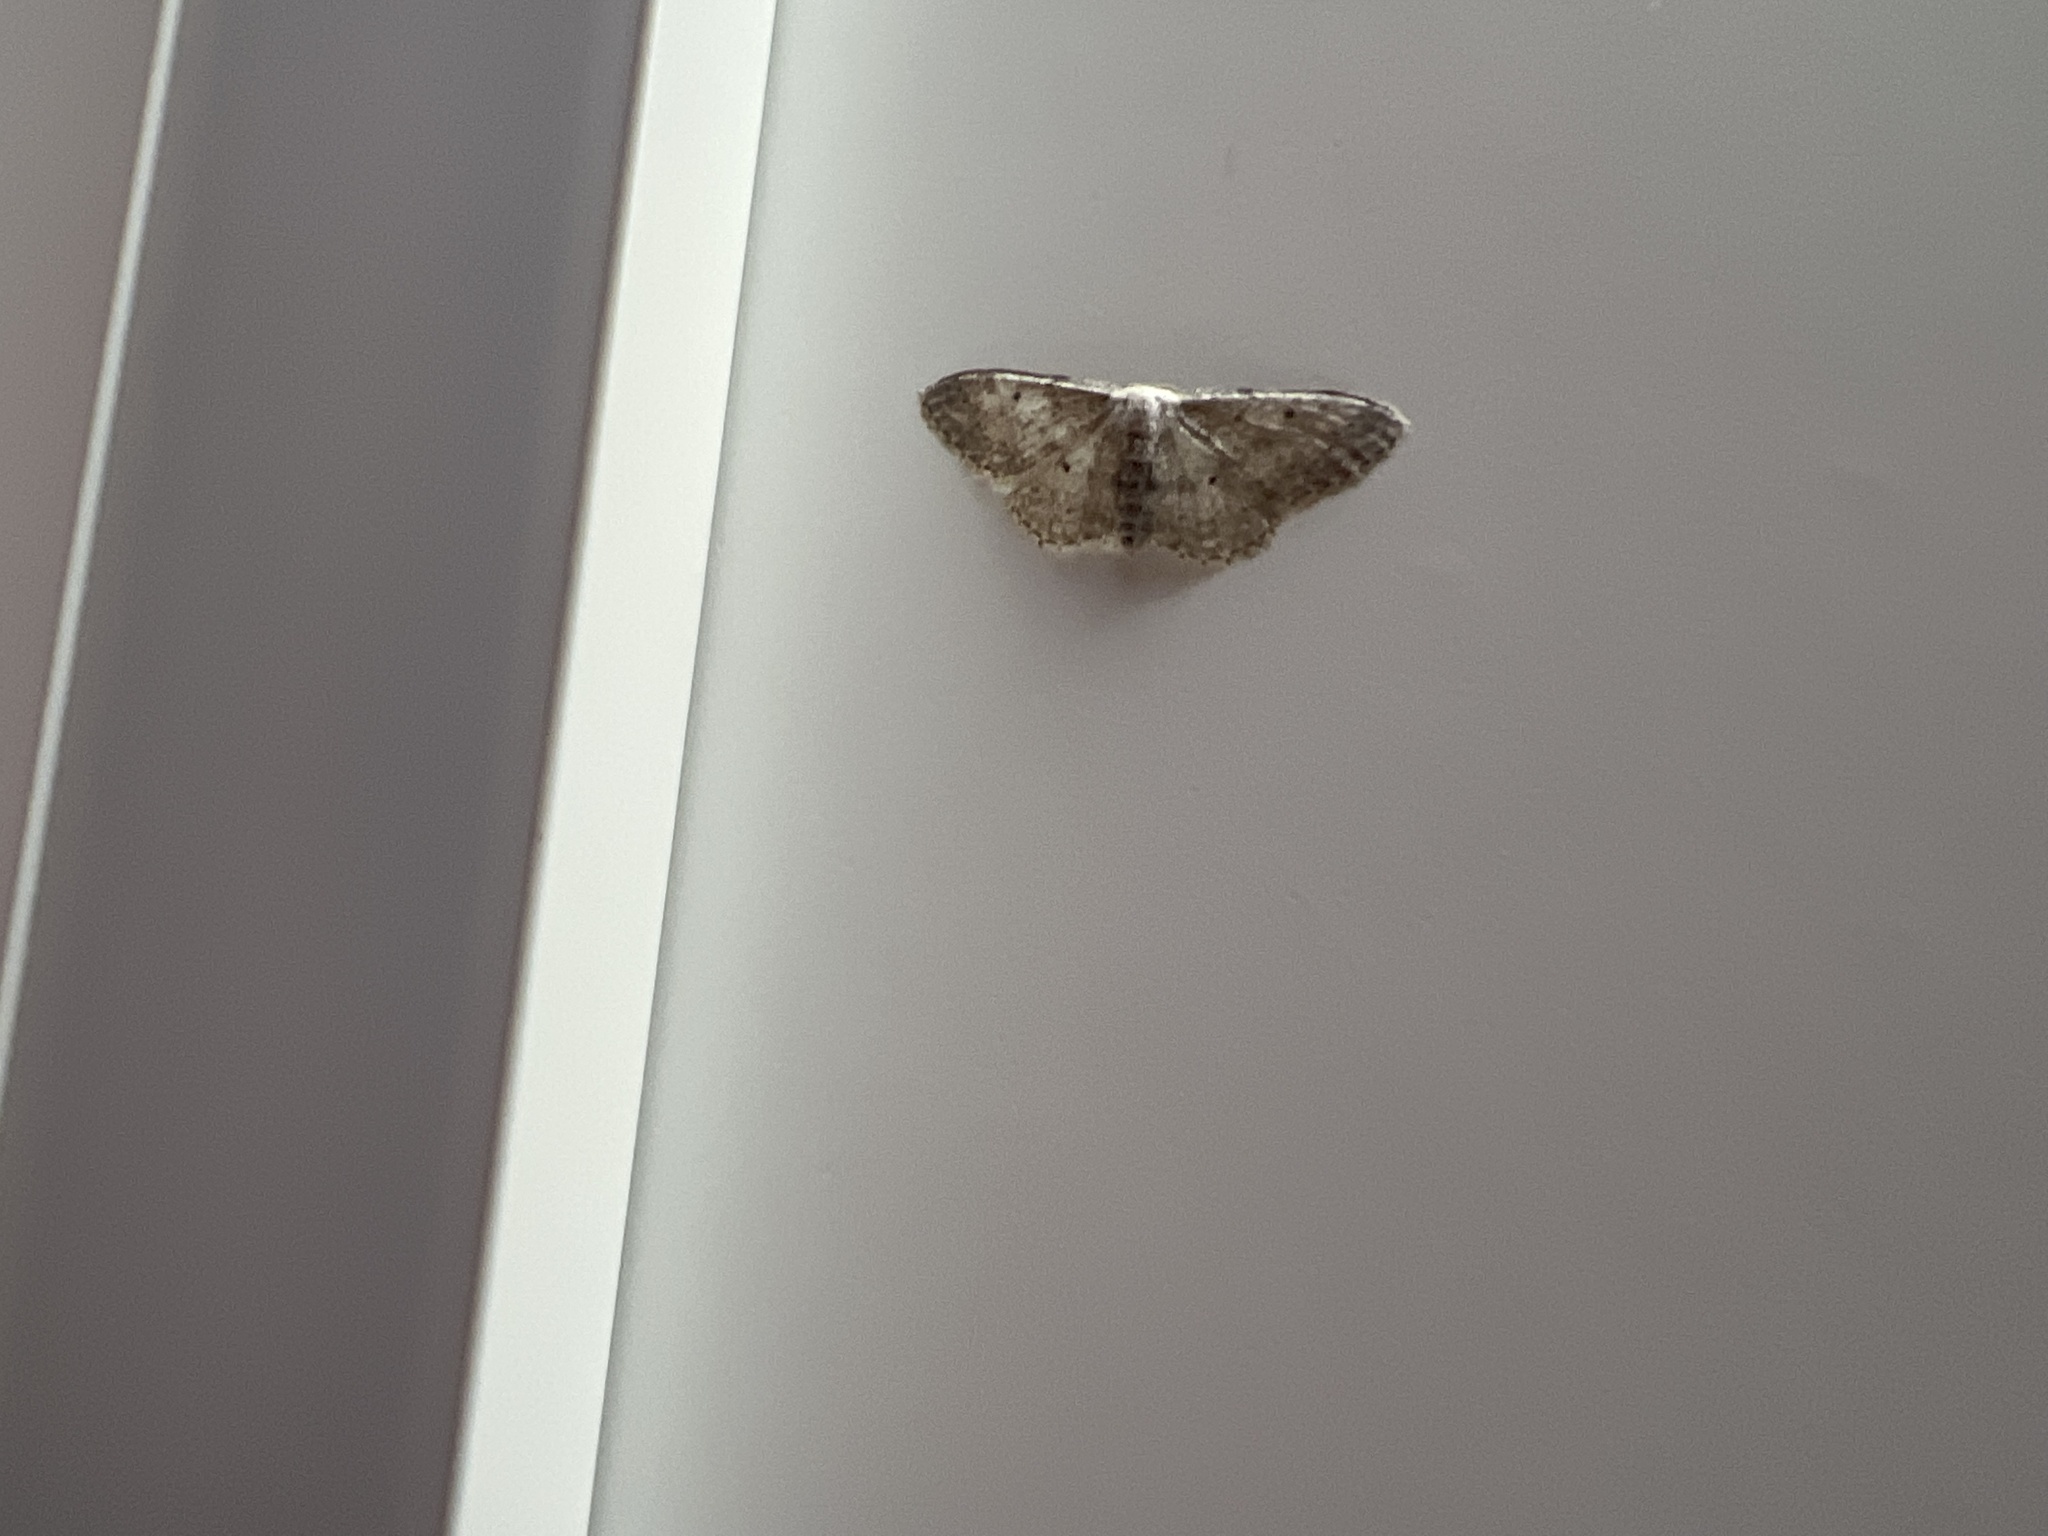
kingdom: Animalia
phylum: Arthropoda
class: Insecta
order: Lepidoptera
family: Geometridae
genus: Idaea
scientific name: Idaea seriata
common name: Small dusty wave
